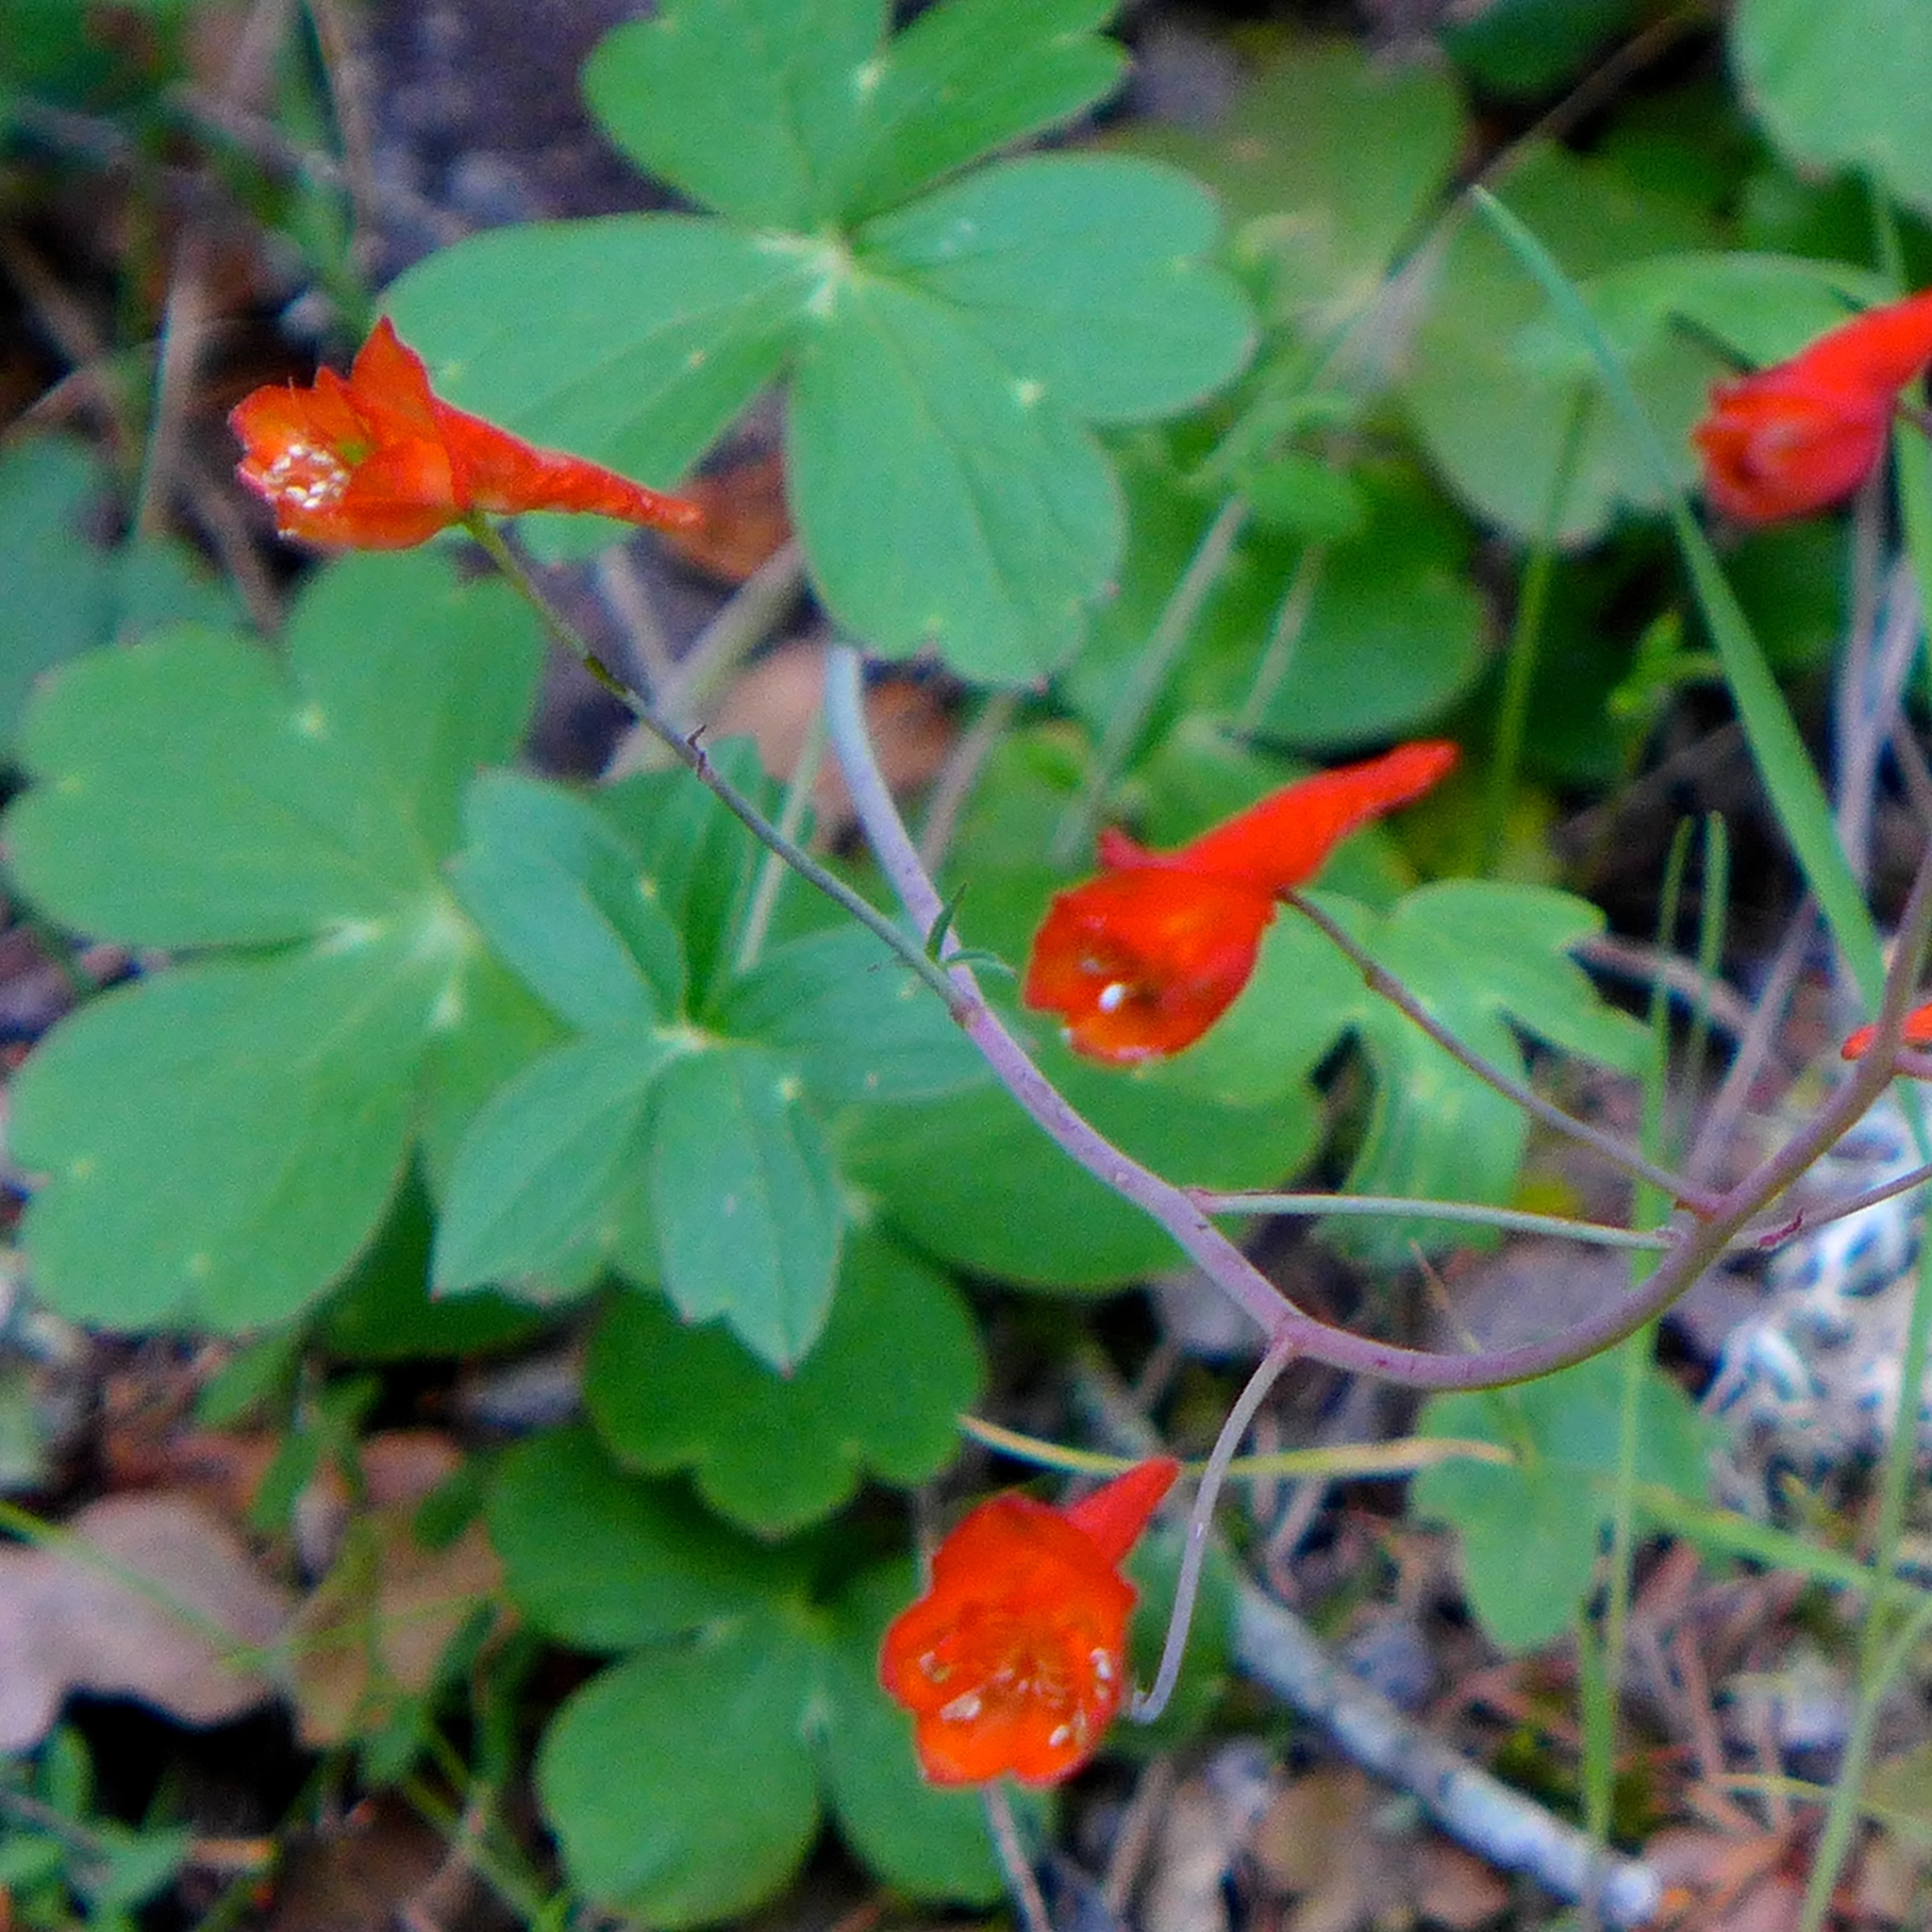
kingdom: Plantae
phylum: Tracheophyta
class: Magnoliopsida
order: Ranunculales
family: Ranunculaceae
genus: Delphinium
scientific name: Delphinium nudicaule
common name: Red larkspur
